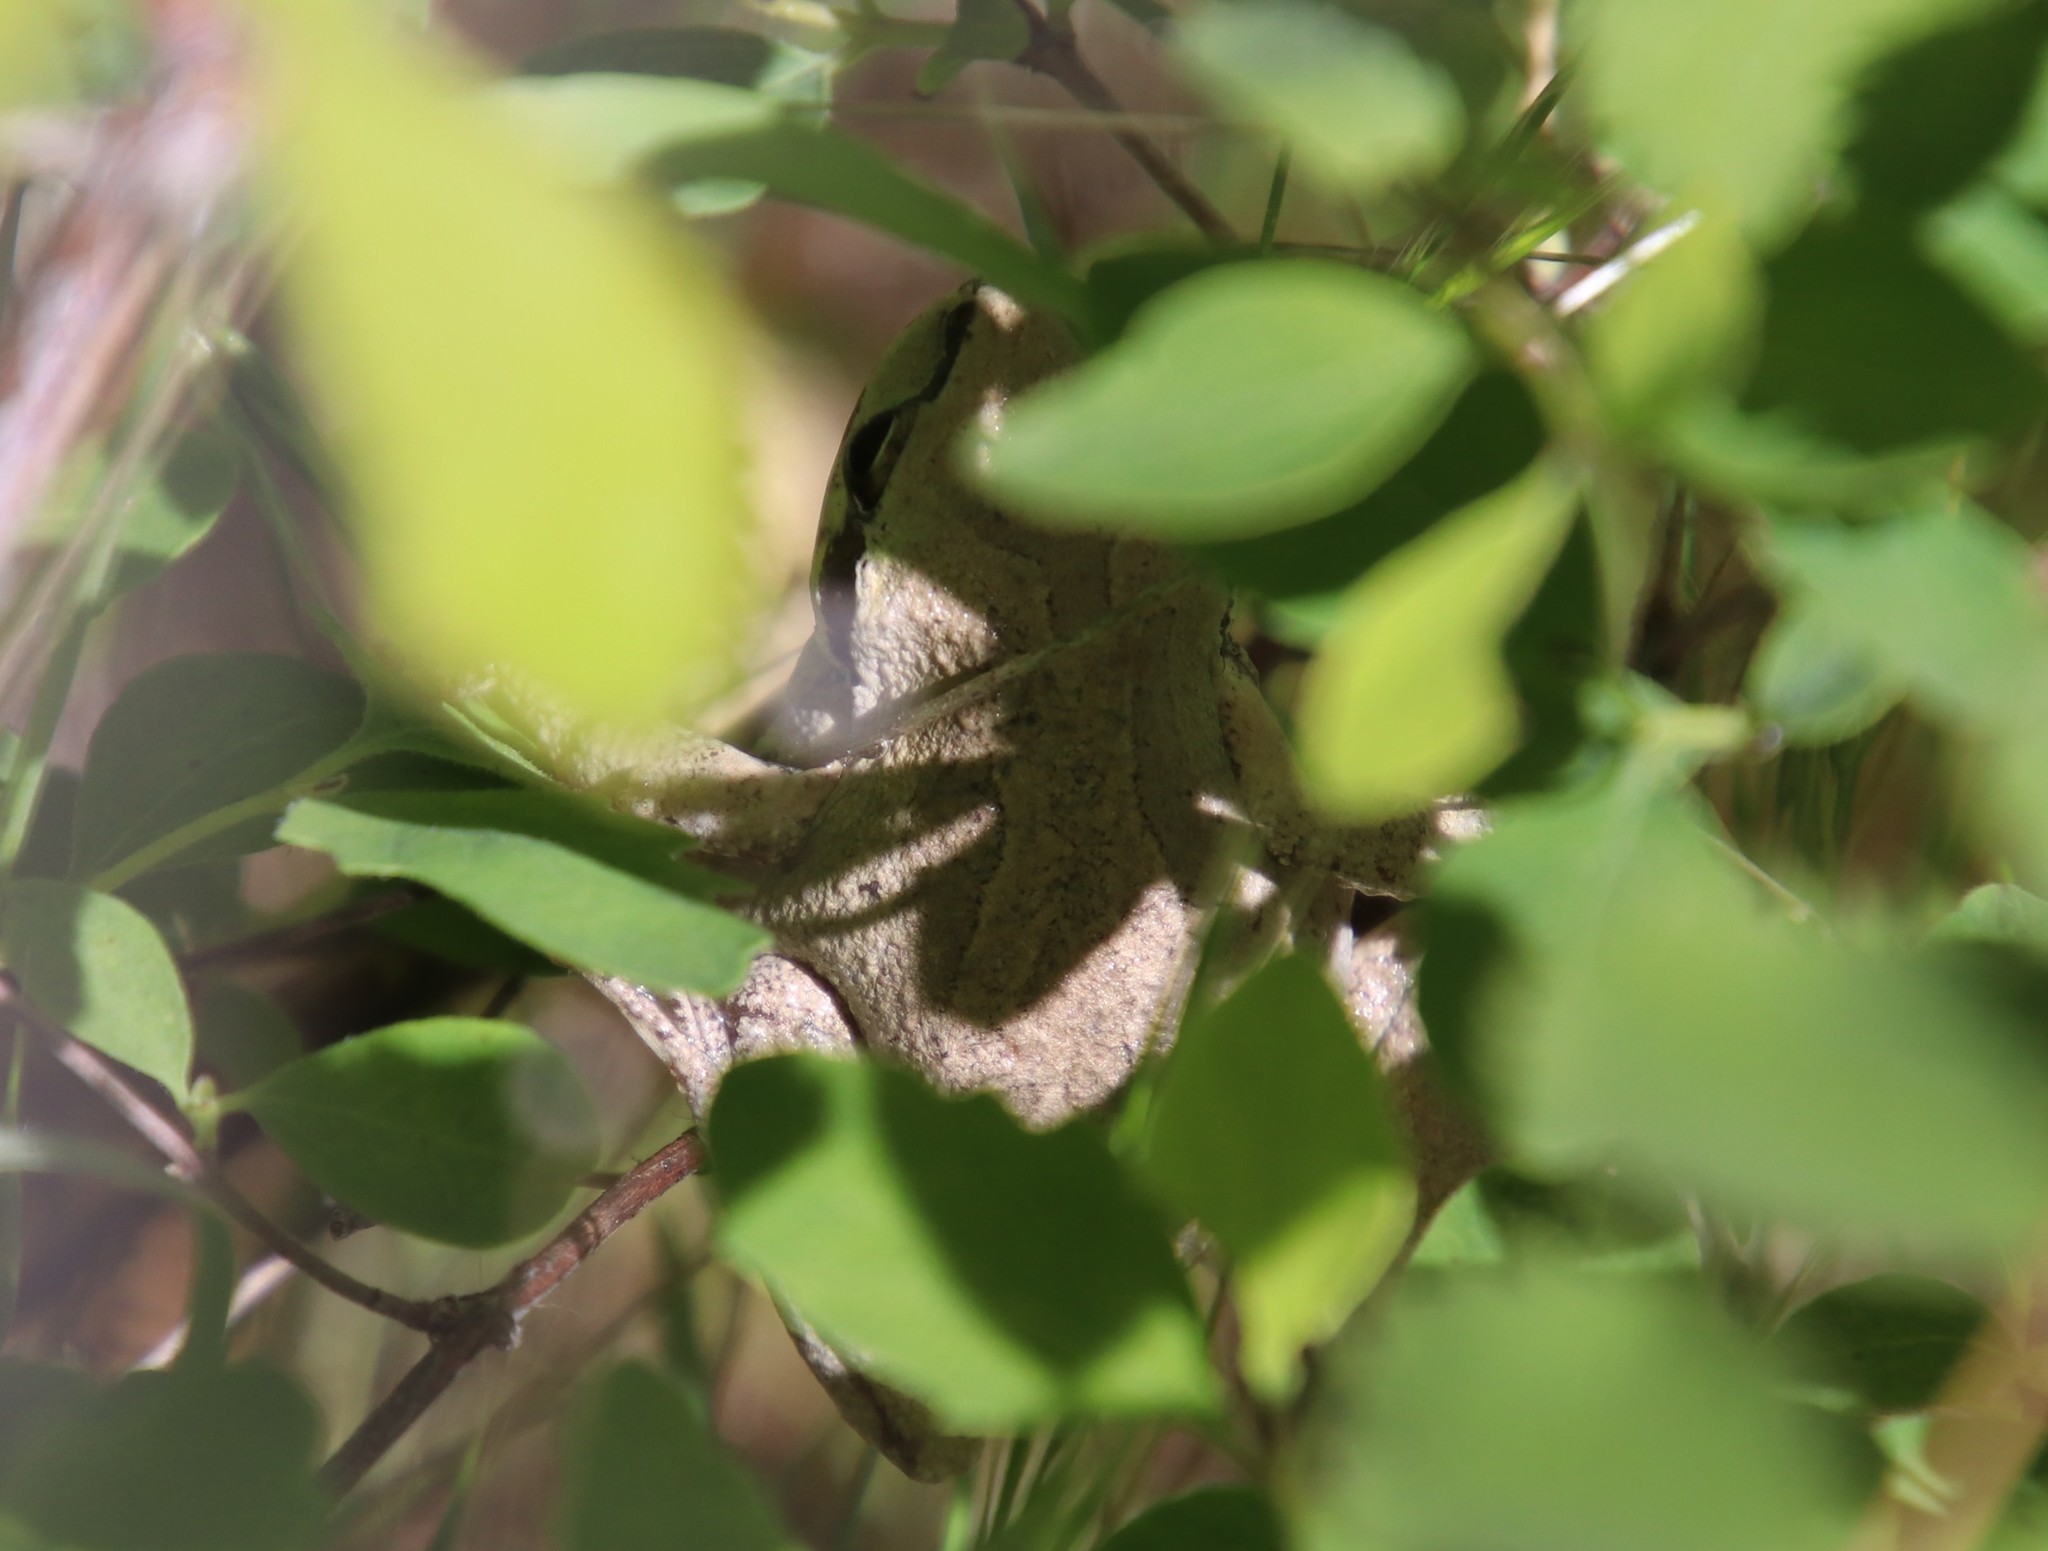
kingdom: Animalia
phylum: Chordata
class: Amphibia
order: Anura
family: Hylidae
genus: Pseudacris
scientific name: Pseudacris regilla
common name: Pacific chorus frog
